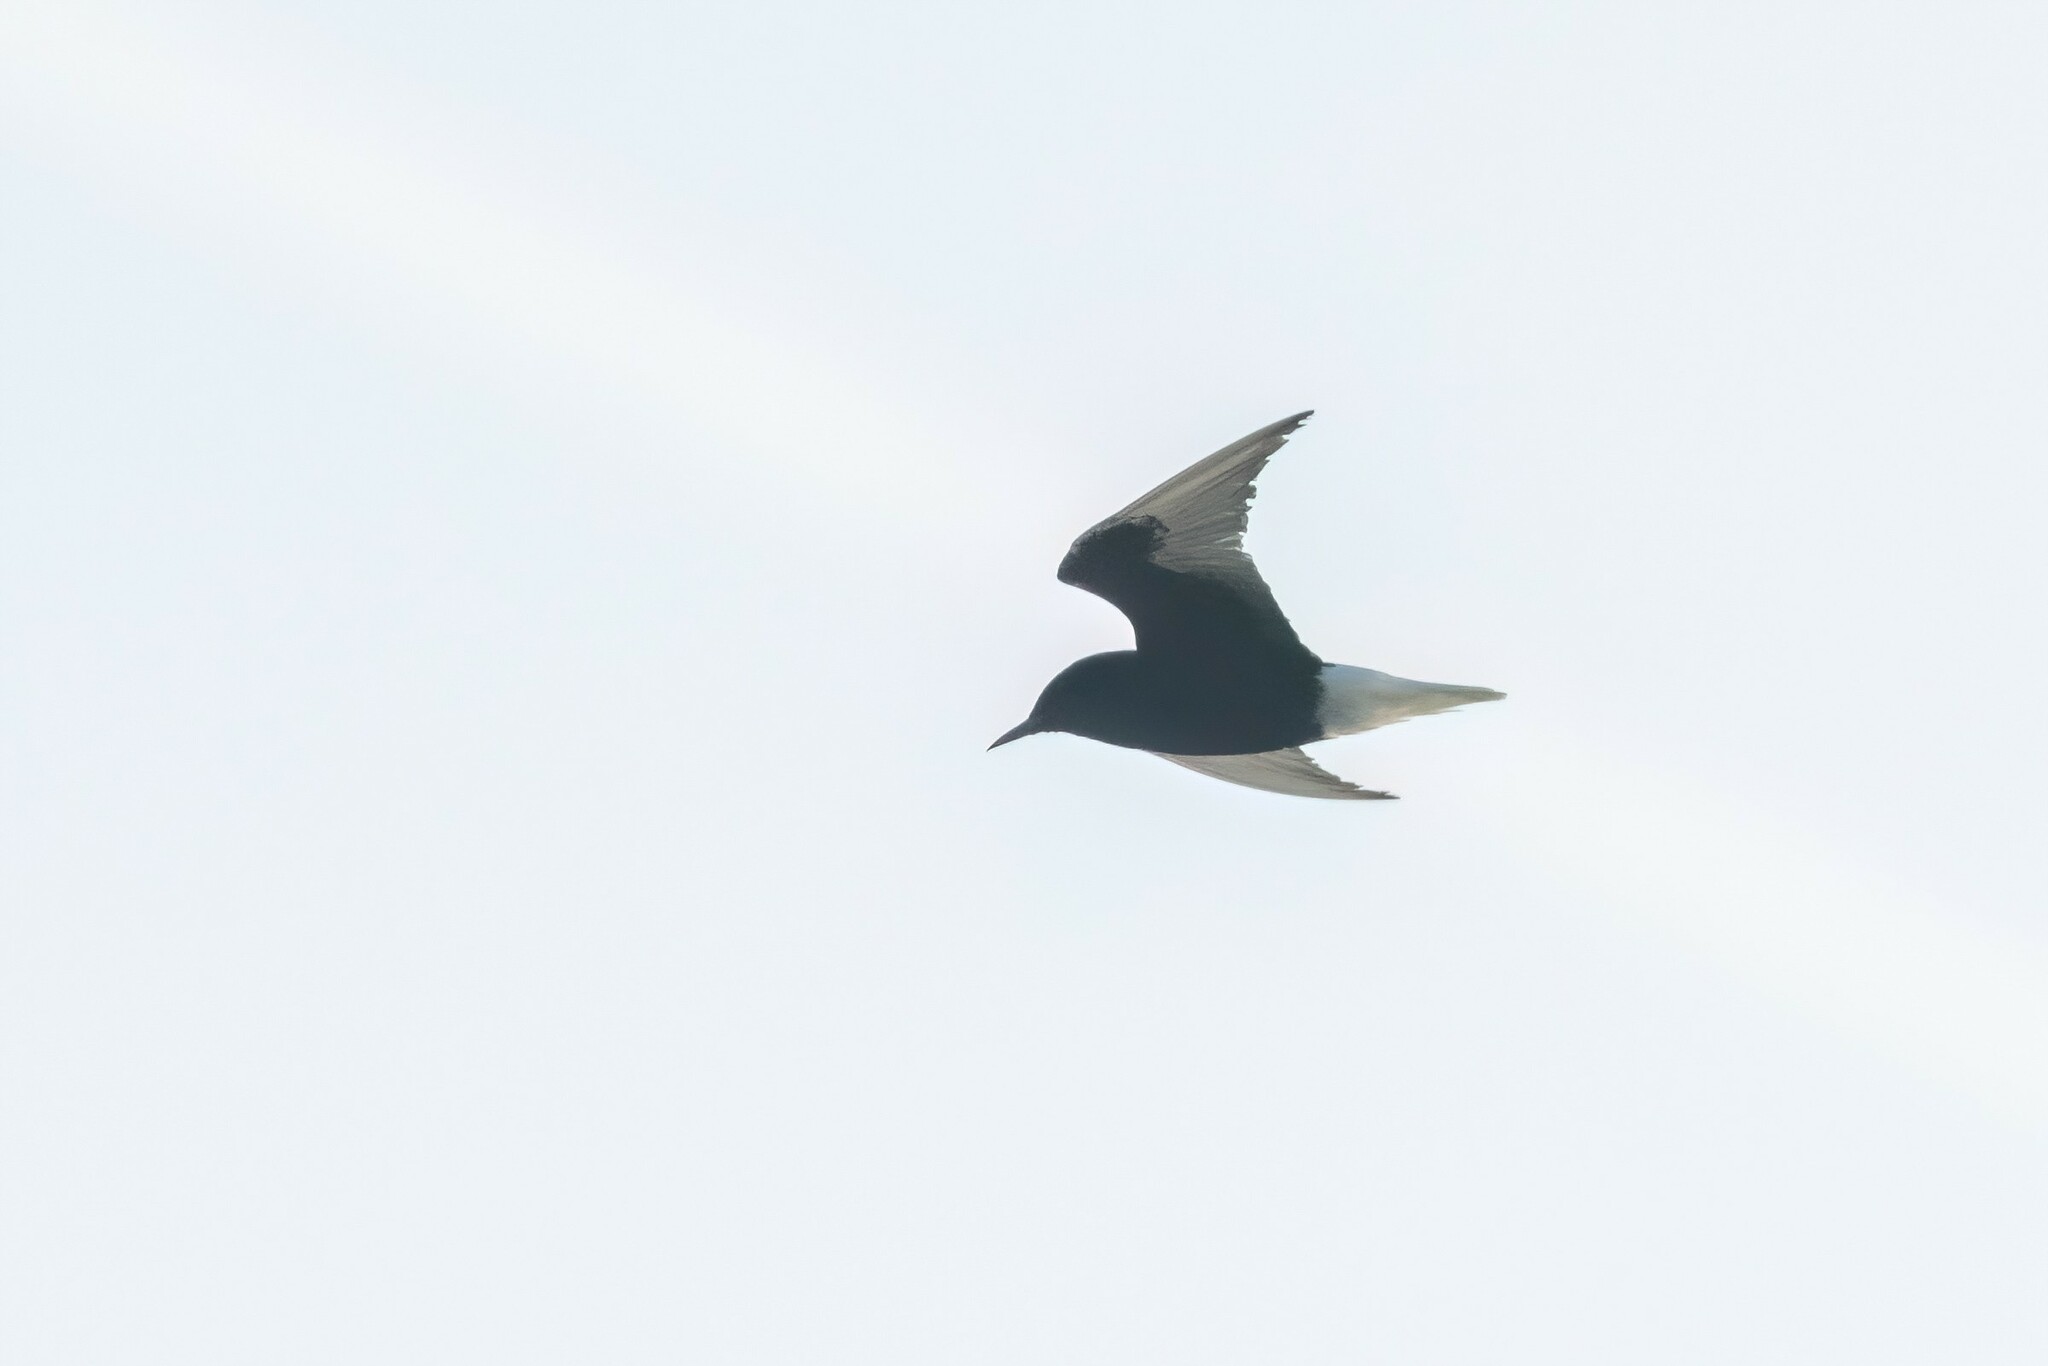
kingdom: Animalia
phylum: Chordata
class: Aves
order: Charadriiformes
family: Laridae
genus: Chlidonias
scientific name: Chlidonias leucopterus
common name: White-winged tern
